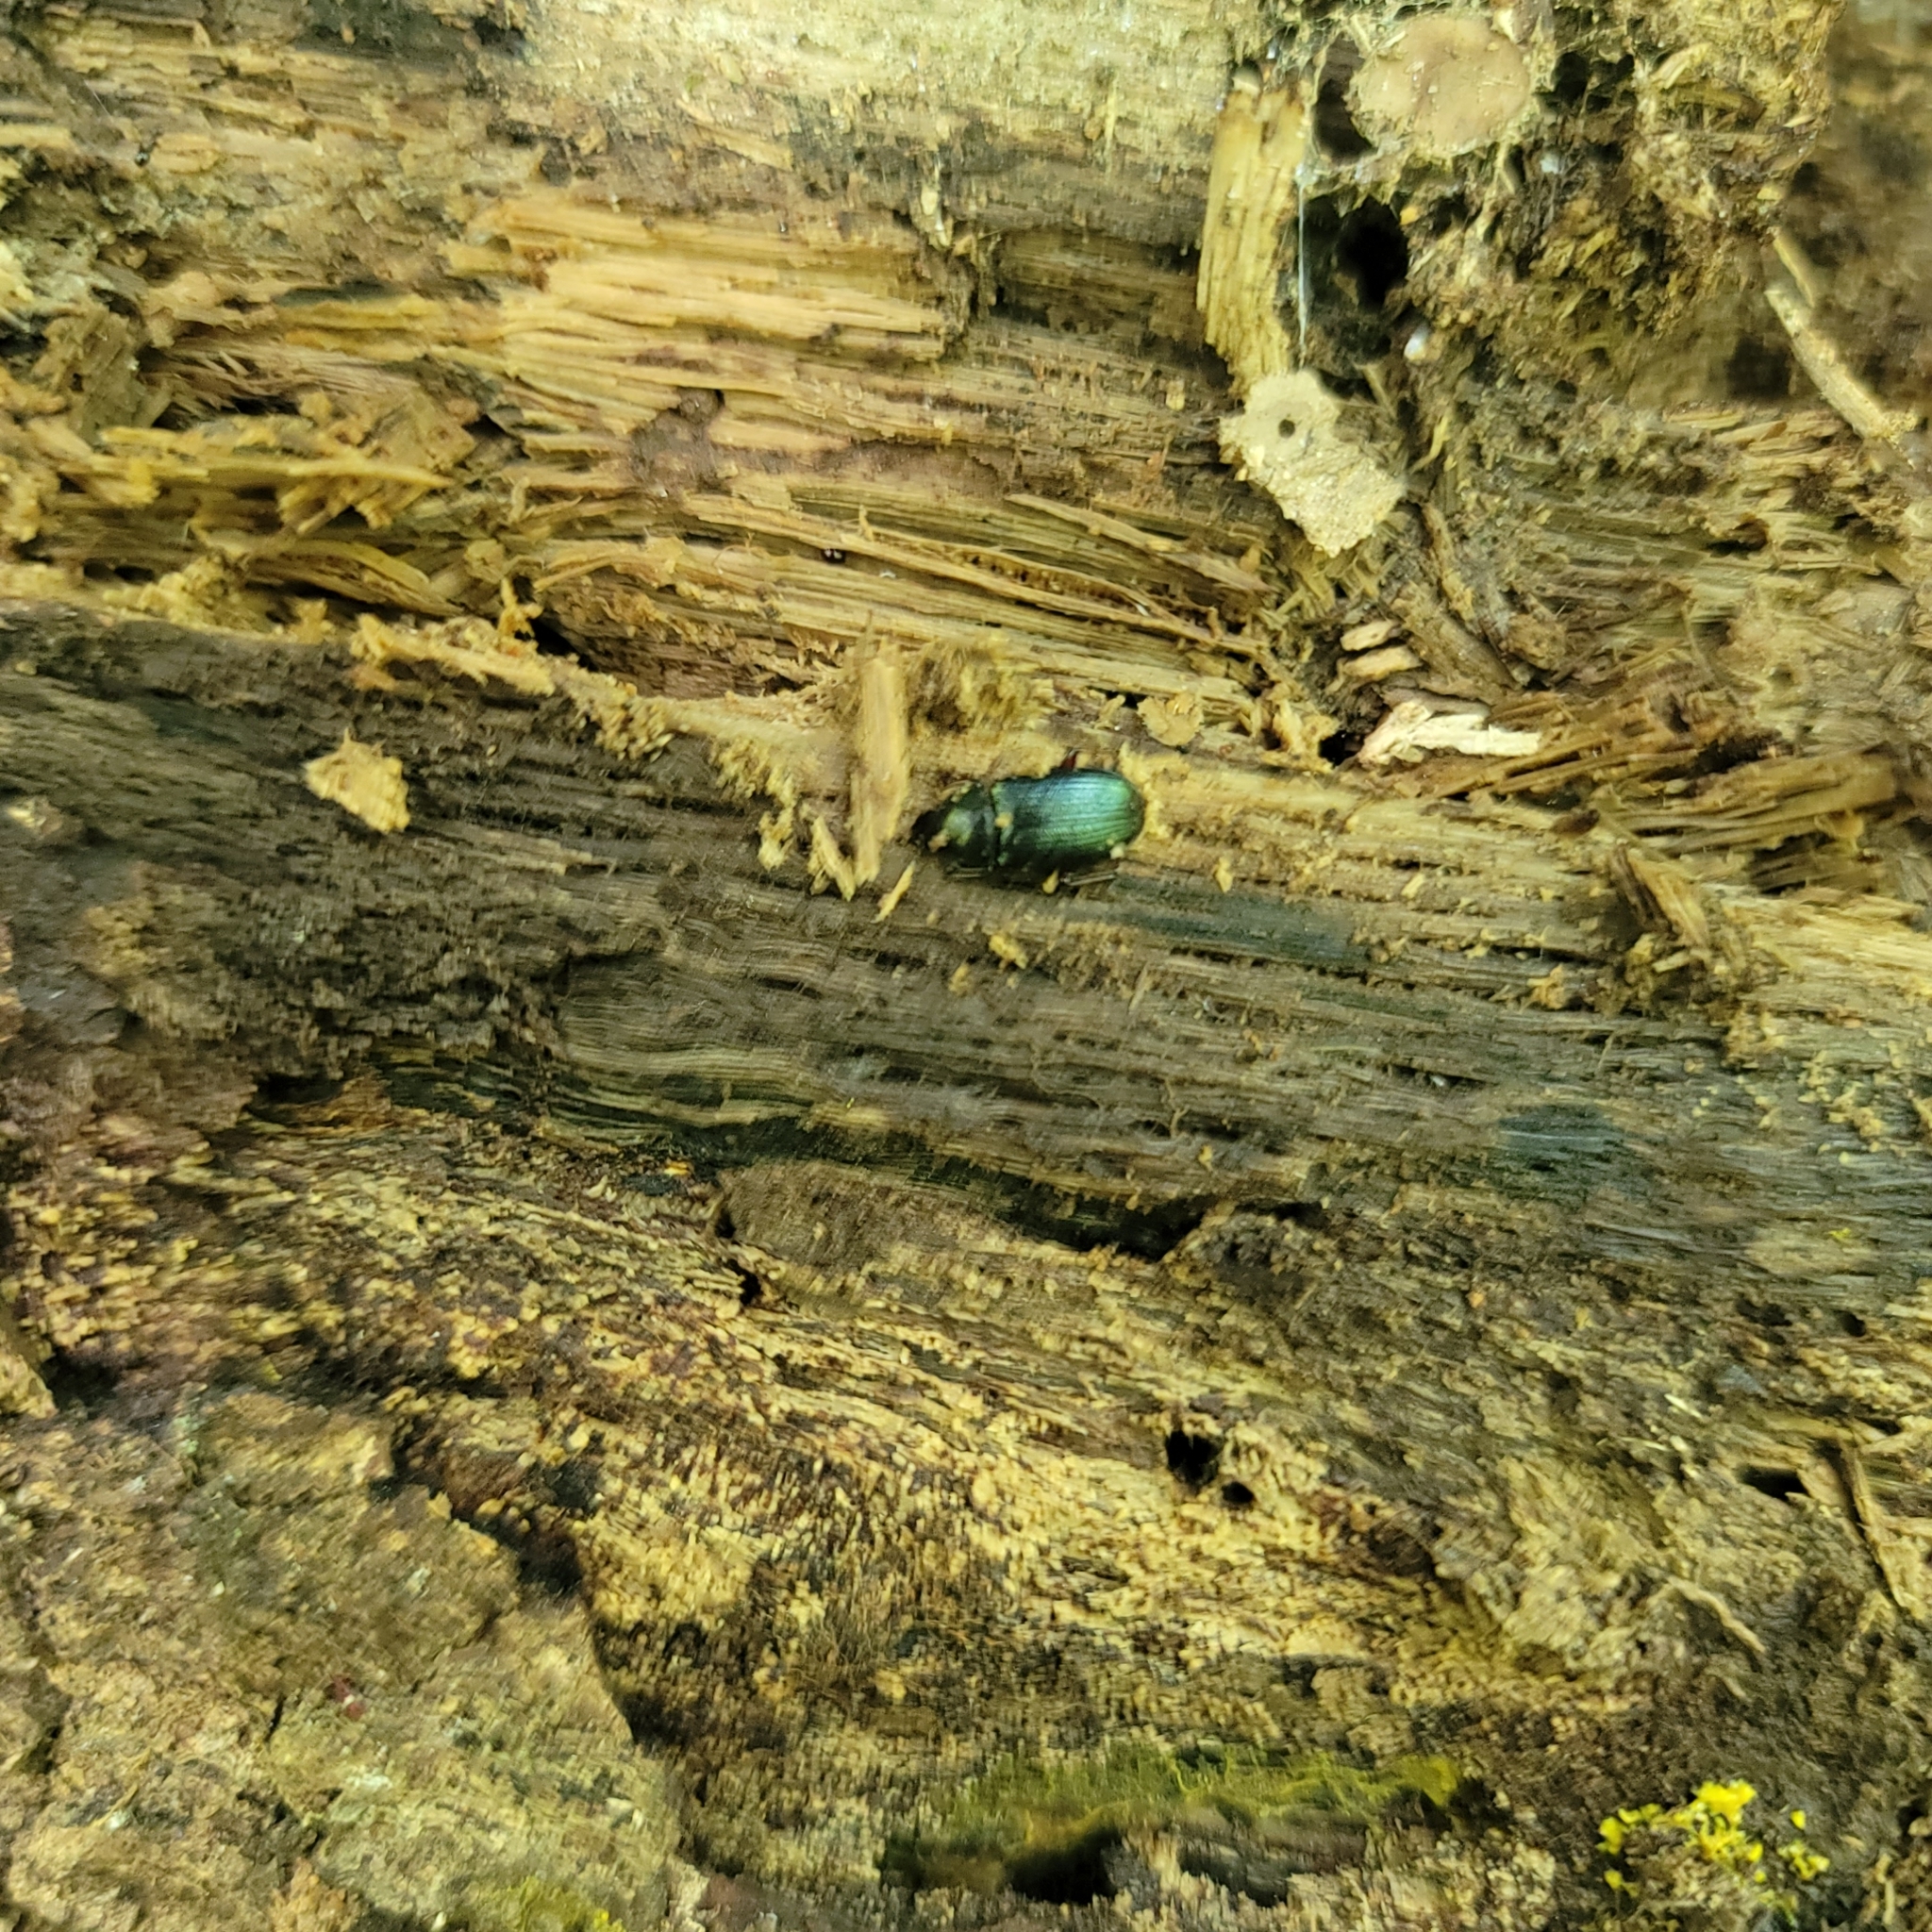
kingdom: Animalia
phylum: Arthropoda
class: Insecta
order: Coleoptera
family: Lucanidae
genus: Platycerus
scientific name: Platycerus quercus
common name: Oak stag beetle
